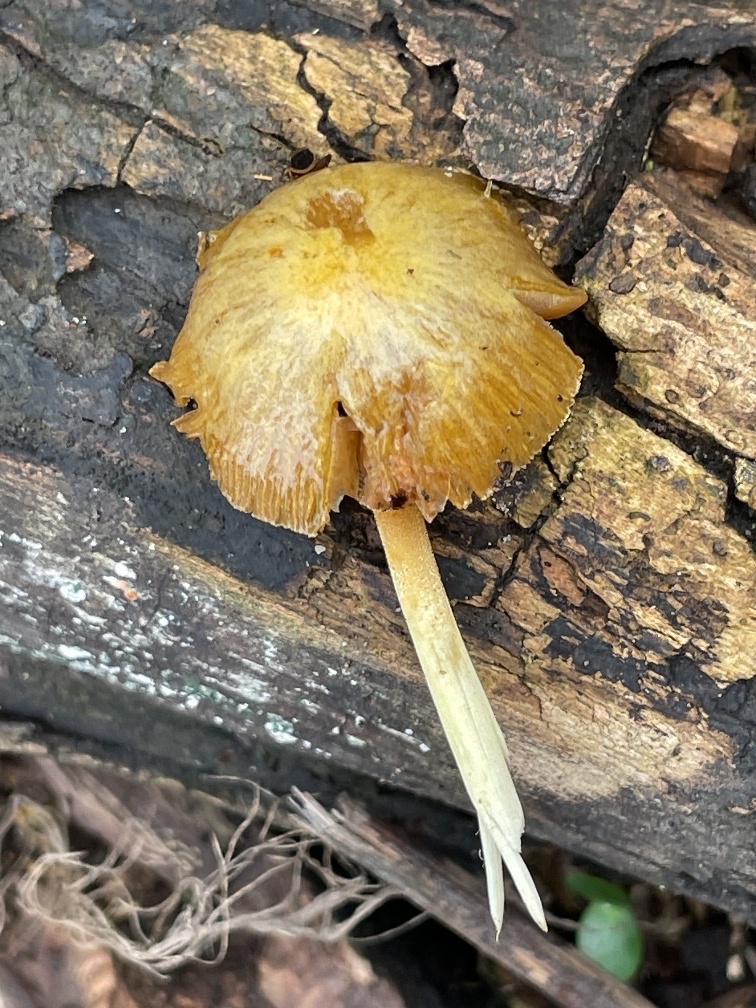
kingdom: Fungi
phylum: Basidiomycota
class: Agaricomycetes
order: Agaricales
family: Bolbitiaceae
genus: Bolbitius
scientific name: Bolbitius titubans
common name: Yellow fieldcap
